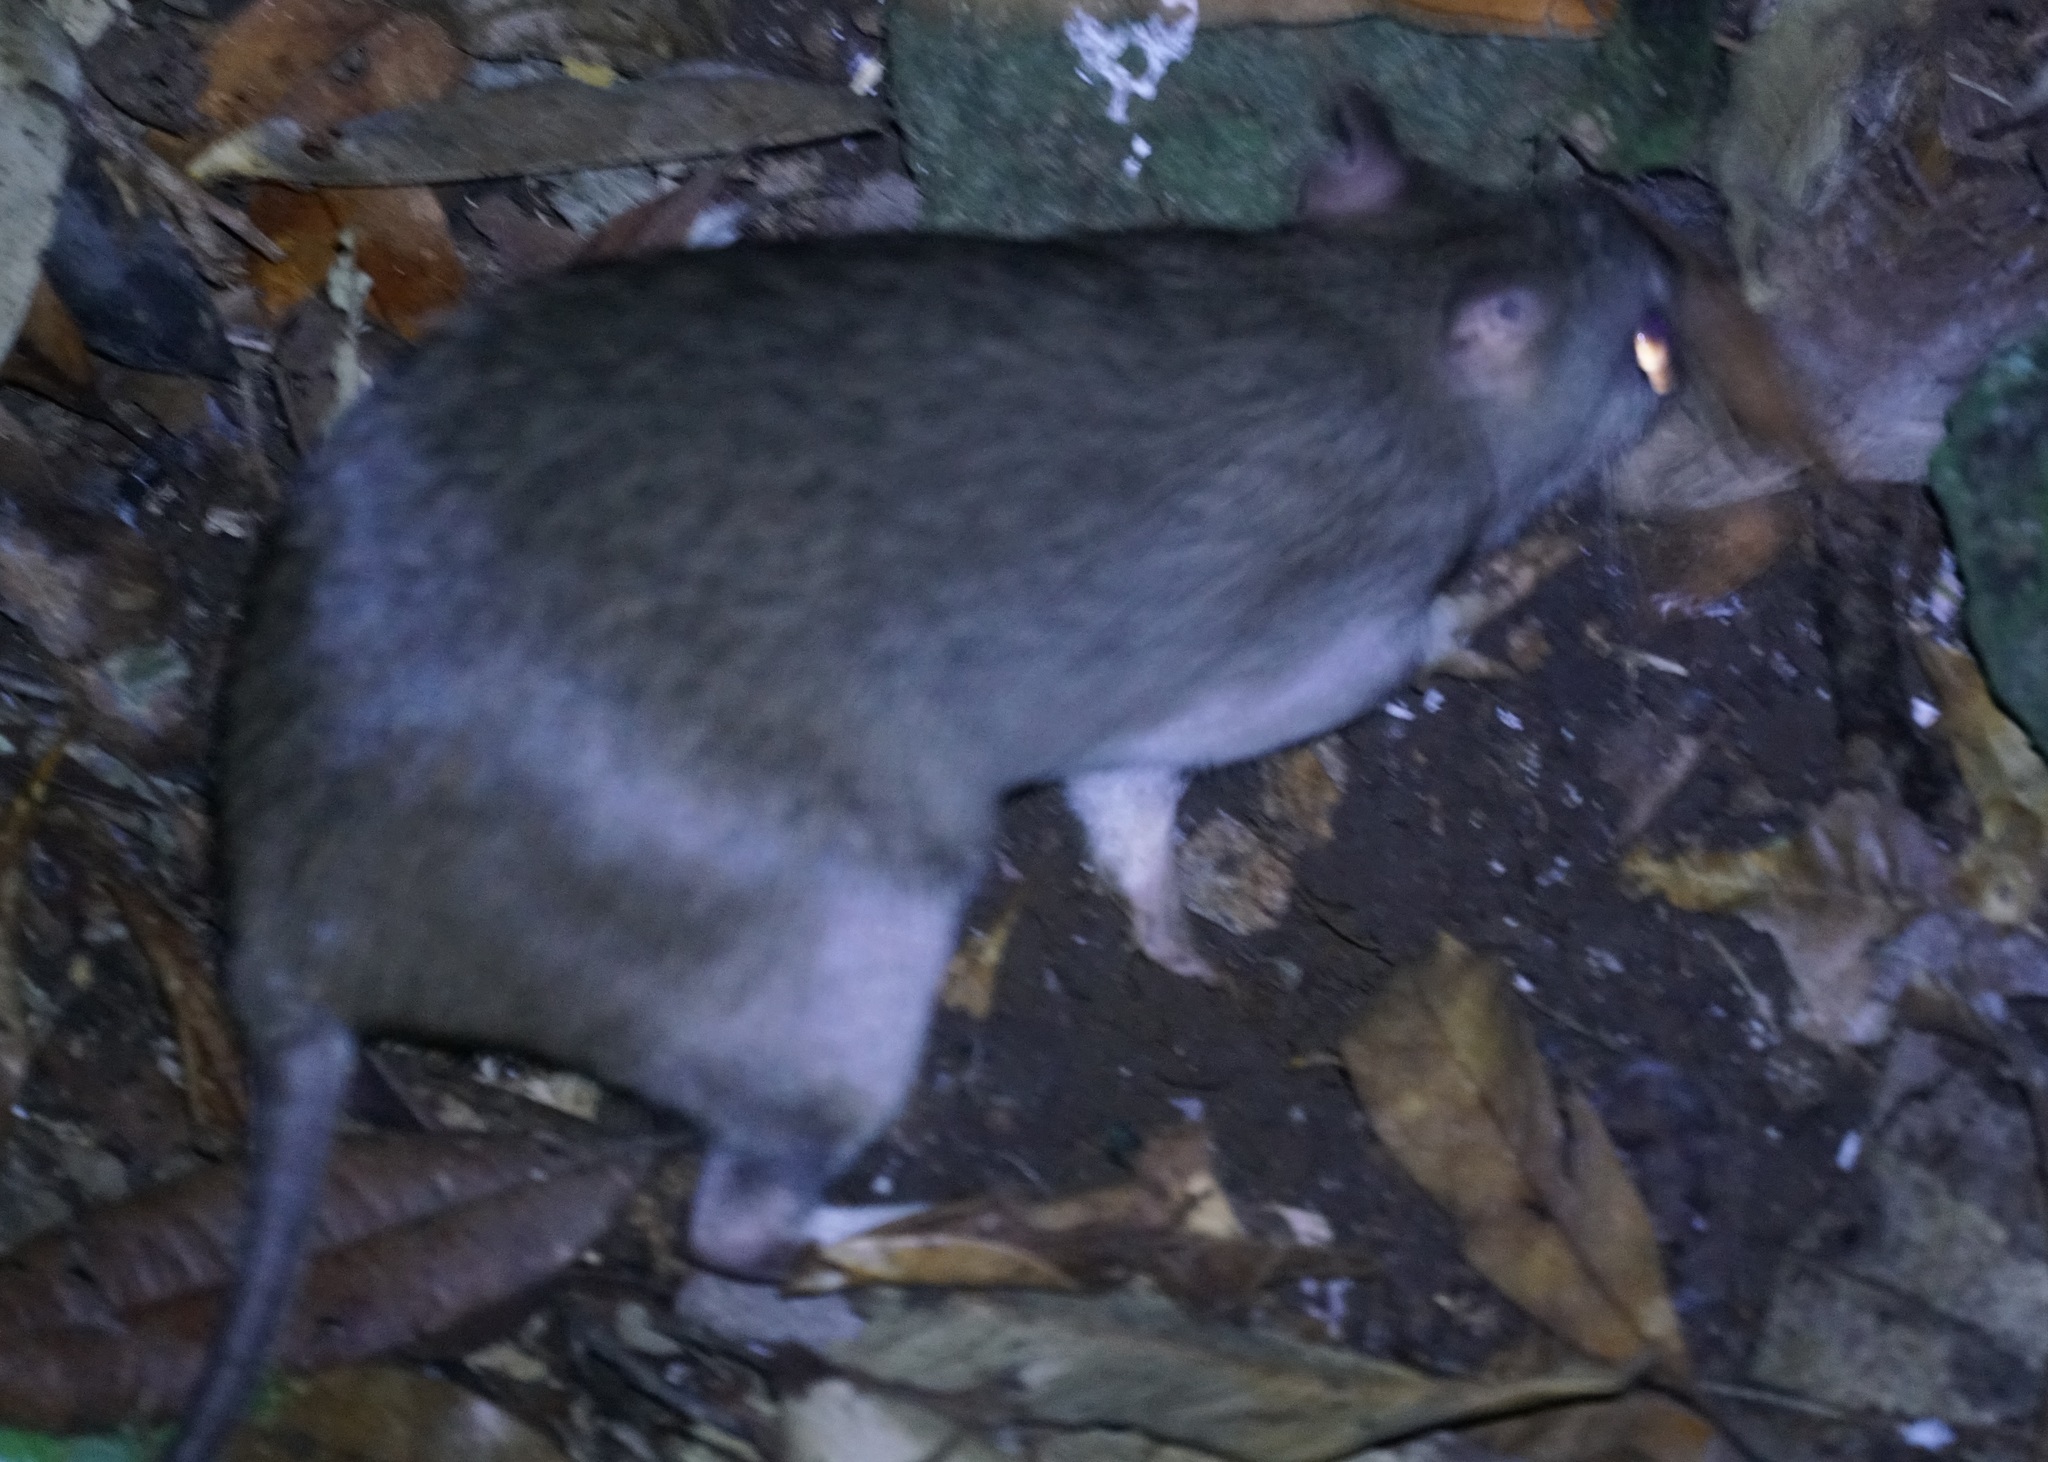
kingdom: Animalia
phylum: Chordata
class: Mammalia
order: Peramelemorphia
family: Peramelidae
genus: Perameles
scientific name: Perameles pallescens
